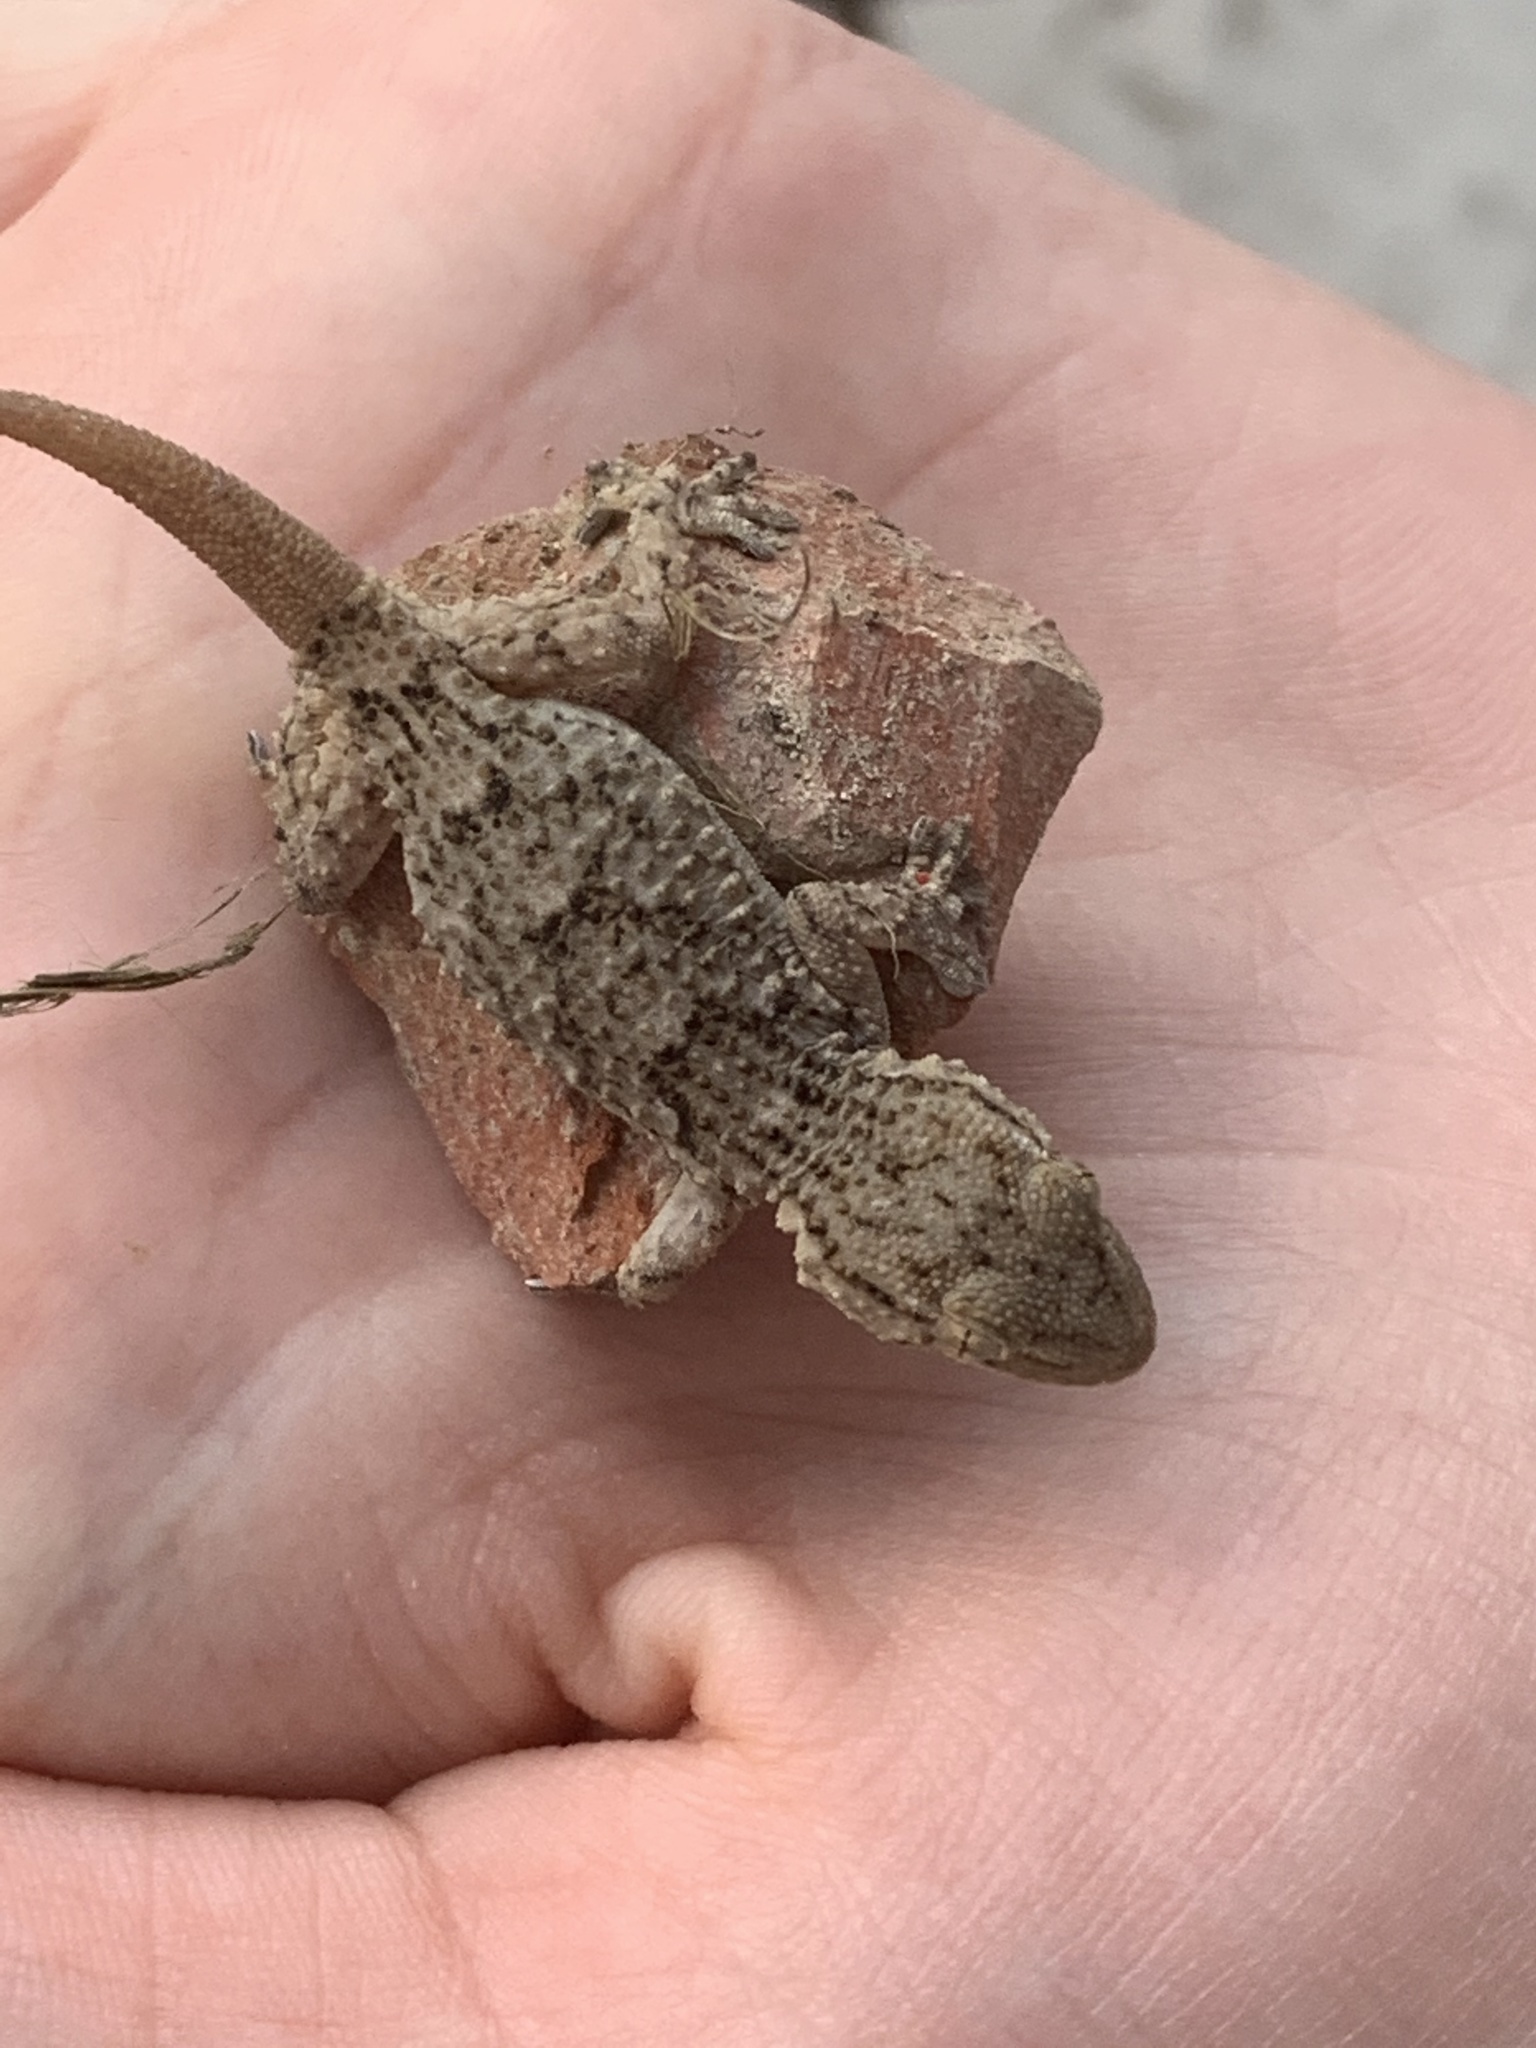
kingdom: Animalia
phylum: Chordata
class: Squamata
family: Phyllodactylidae
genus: Tarentola
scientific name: Tarentola mauritanica
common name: Moorish gecko
